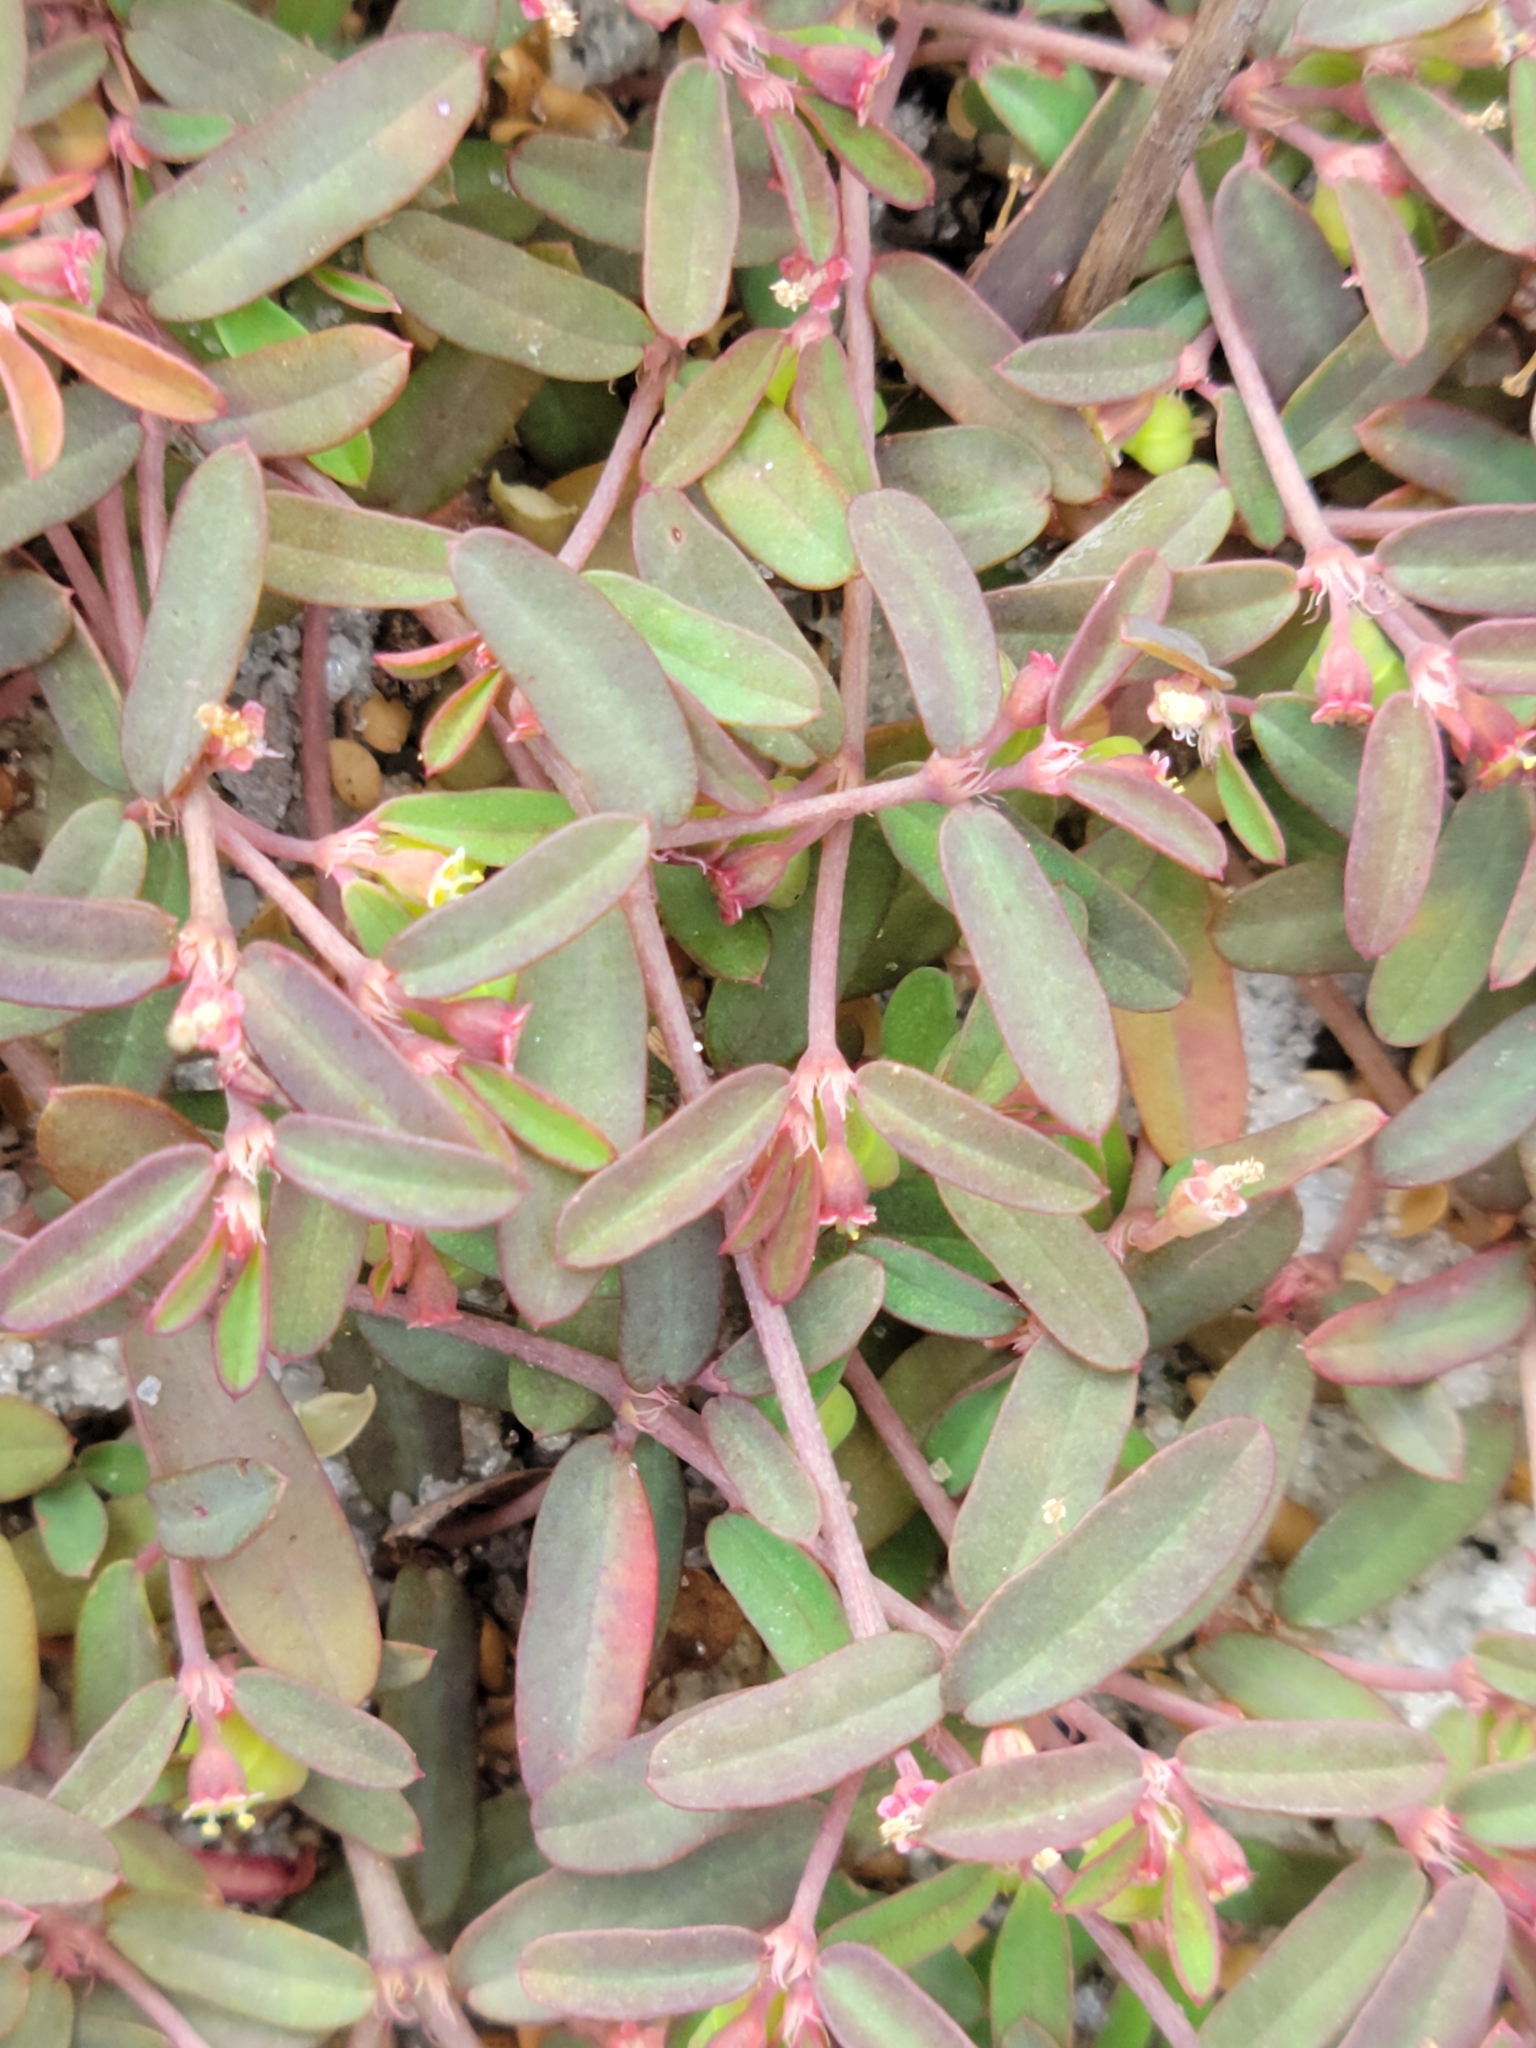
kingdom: Plantae
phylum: Tracheophyta
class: Magnoliopsida
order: Malpighiales
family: Euphorbiaceae
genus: Euphorbia
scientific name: Euphorbia cumulicola
